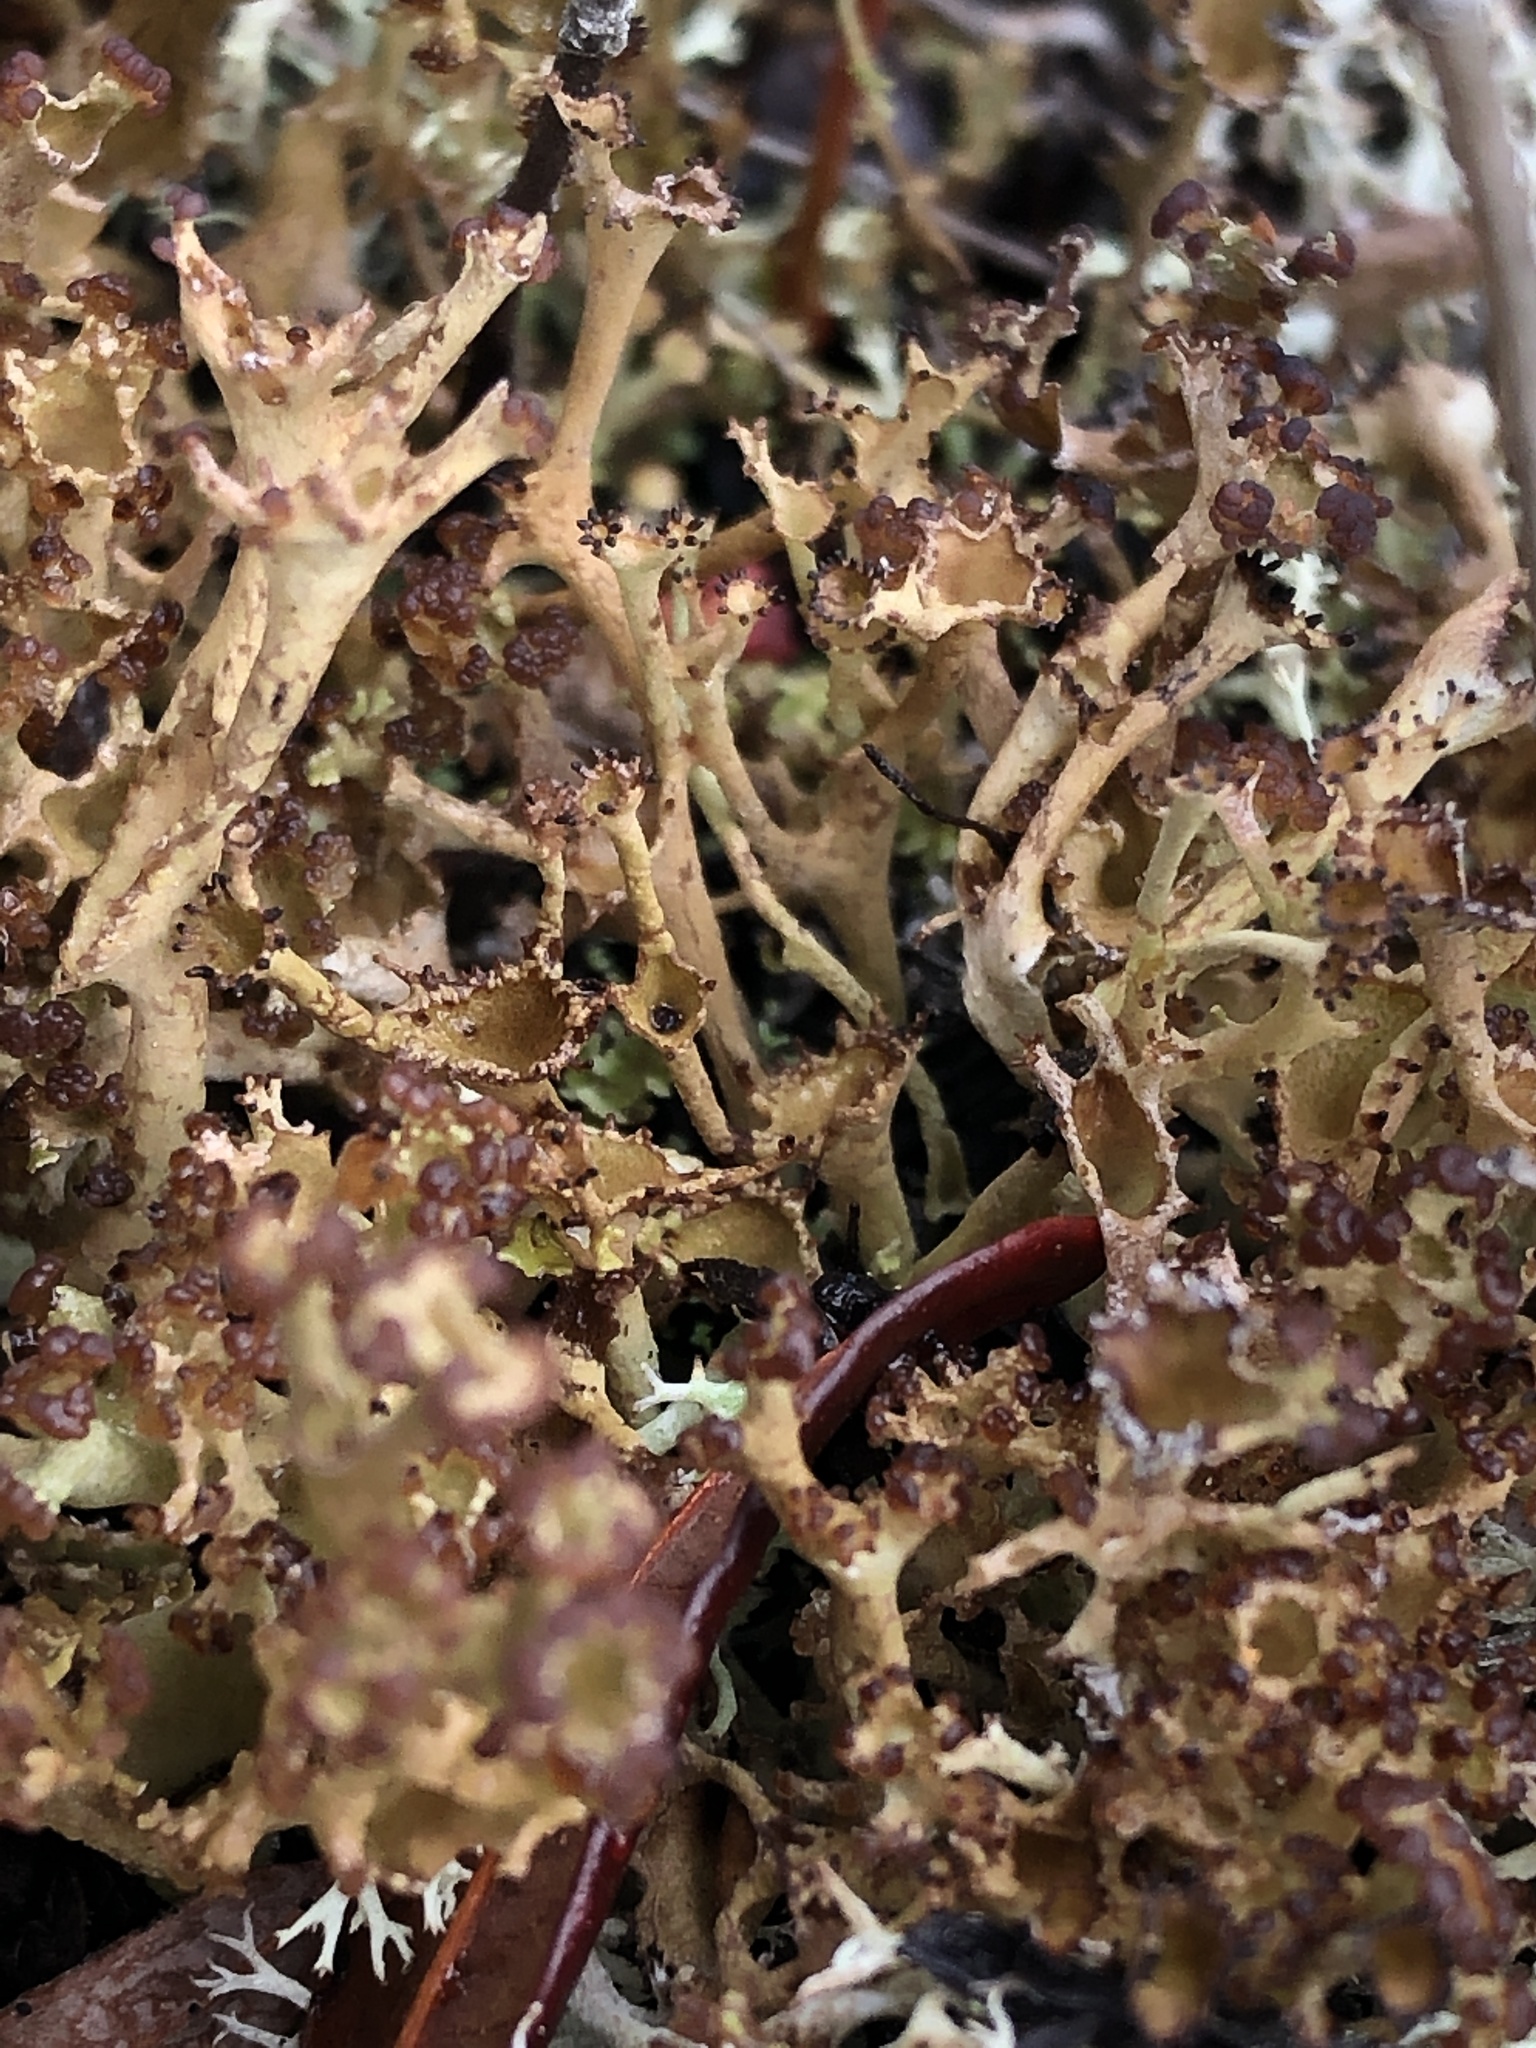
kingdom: Fungi
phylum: Ascomycota
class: Lecanoromycetes
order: Lecanorales
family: Cladoniaceae
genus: Cladonia
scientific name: Cladonia crispata
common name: Organ-pipe lichen
